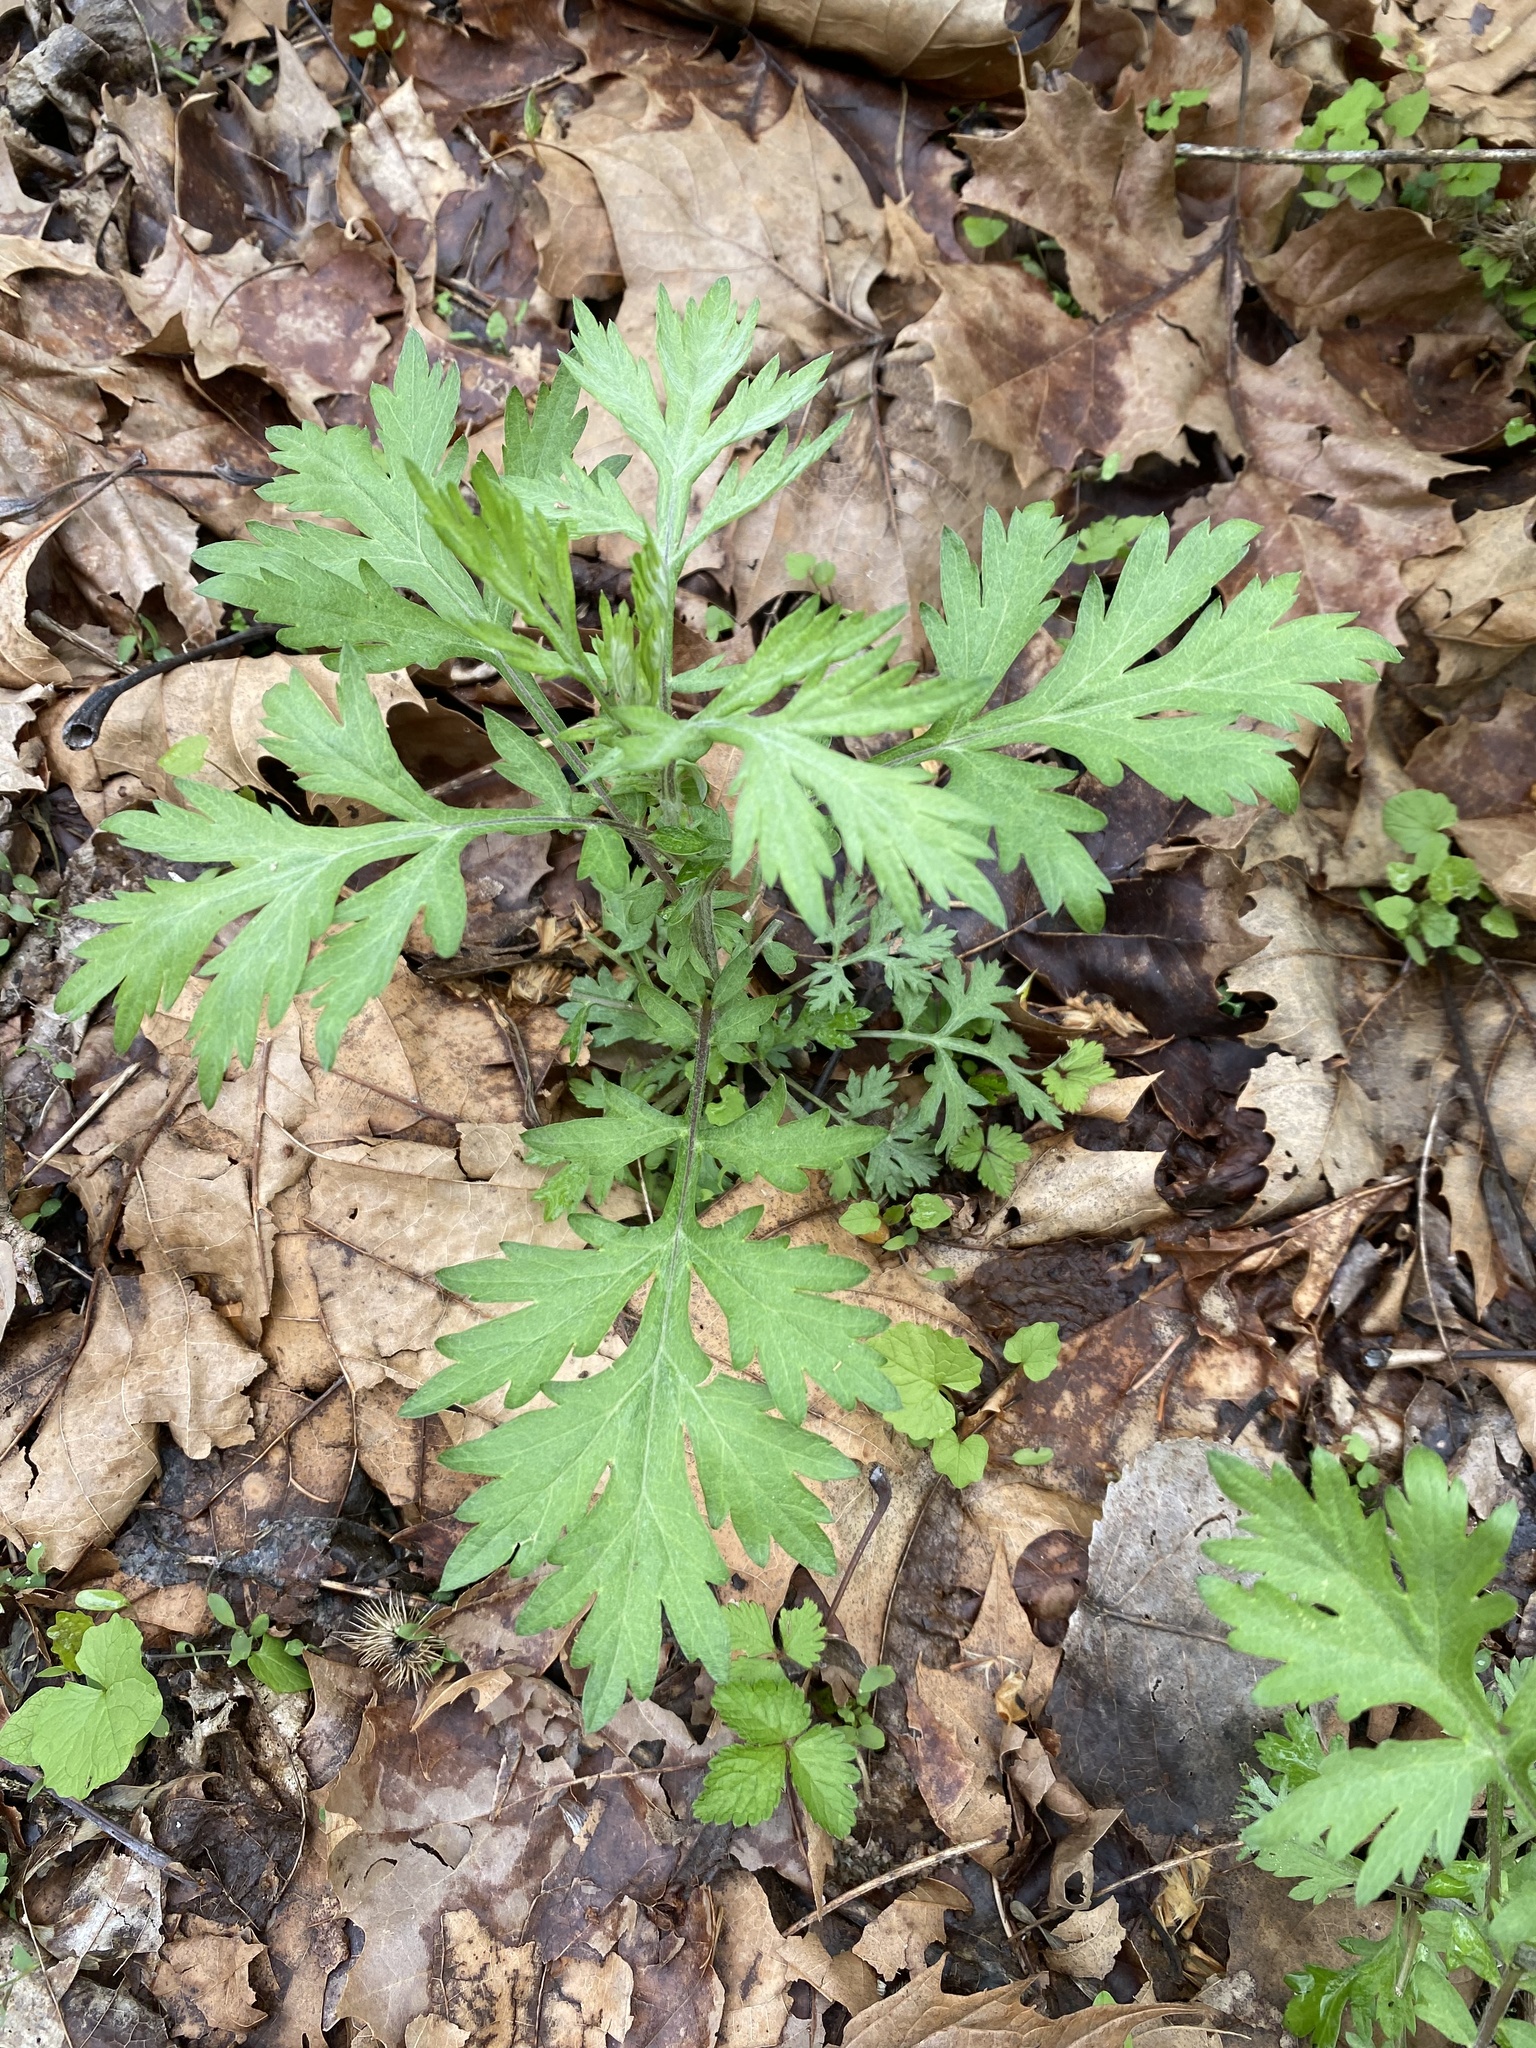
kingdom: Plantae
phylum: Tracheophyta
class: Magnoliopsida
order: Asterales
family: Asteraceae
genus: Artemisia
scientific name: Artemisia vulgaris
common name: Mugwort
